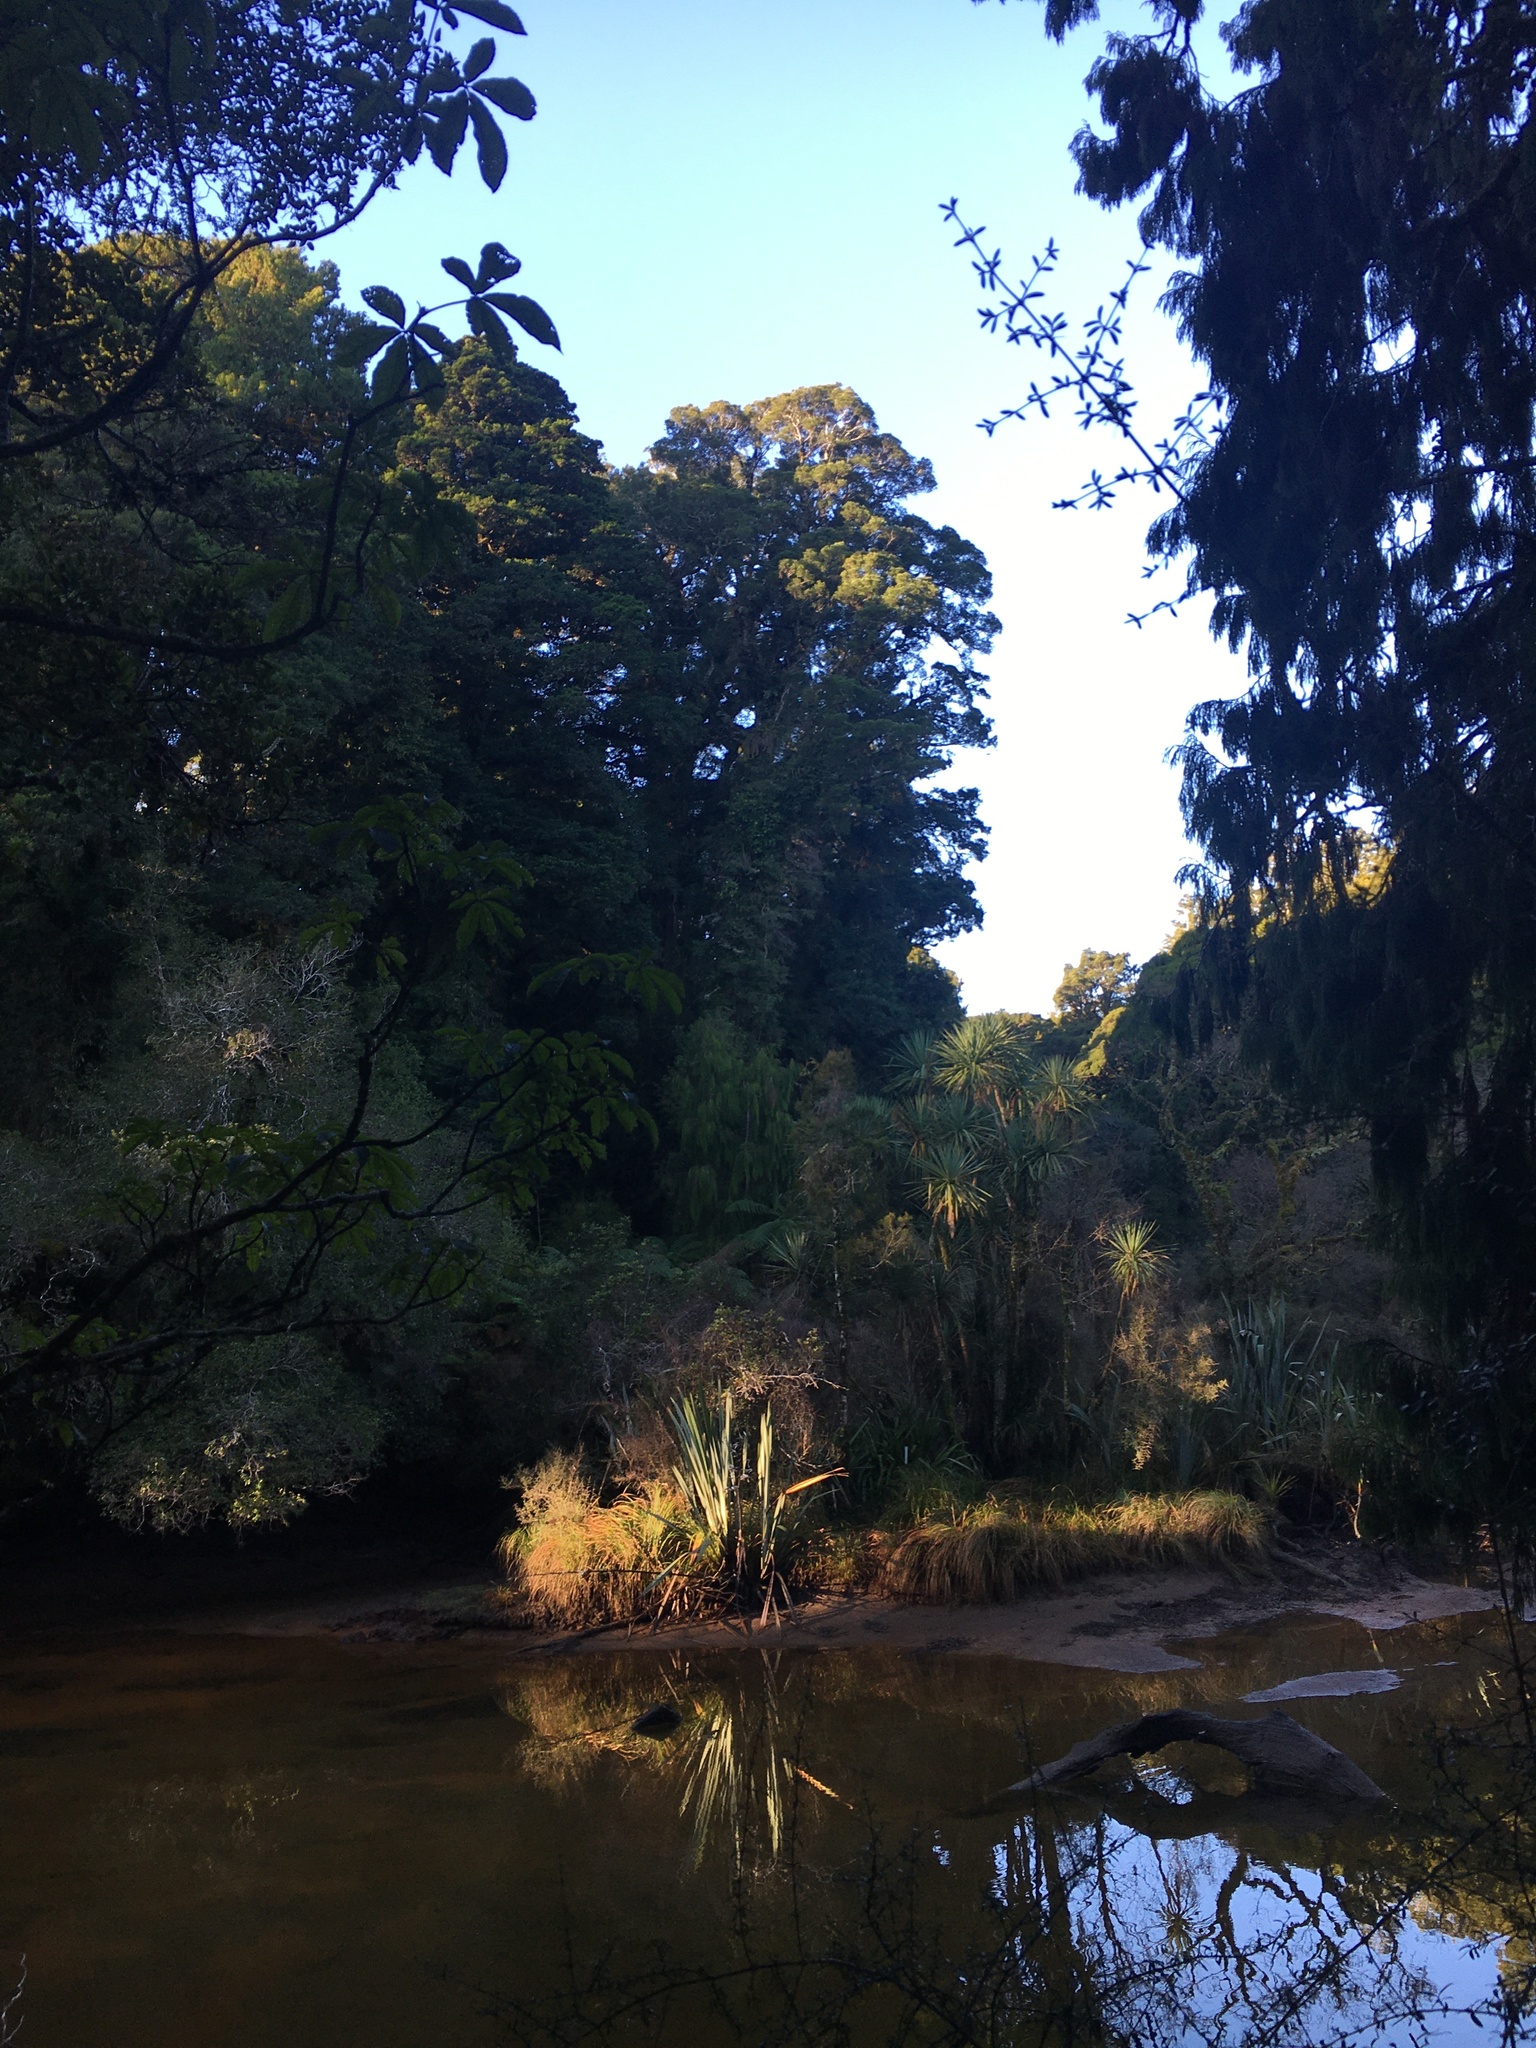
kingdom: Plantae
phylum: Tracheophyta
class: Magnoliopsida
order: Myrtales
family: Myrtaceae
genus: Metrosideros
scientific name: Metrosideros umbellata
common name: Southern rata
